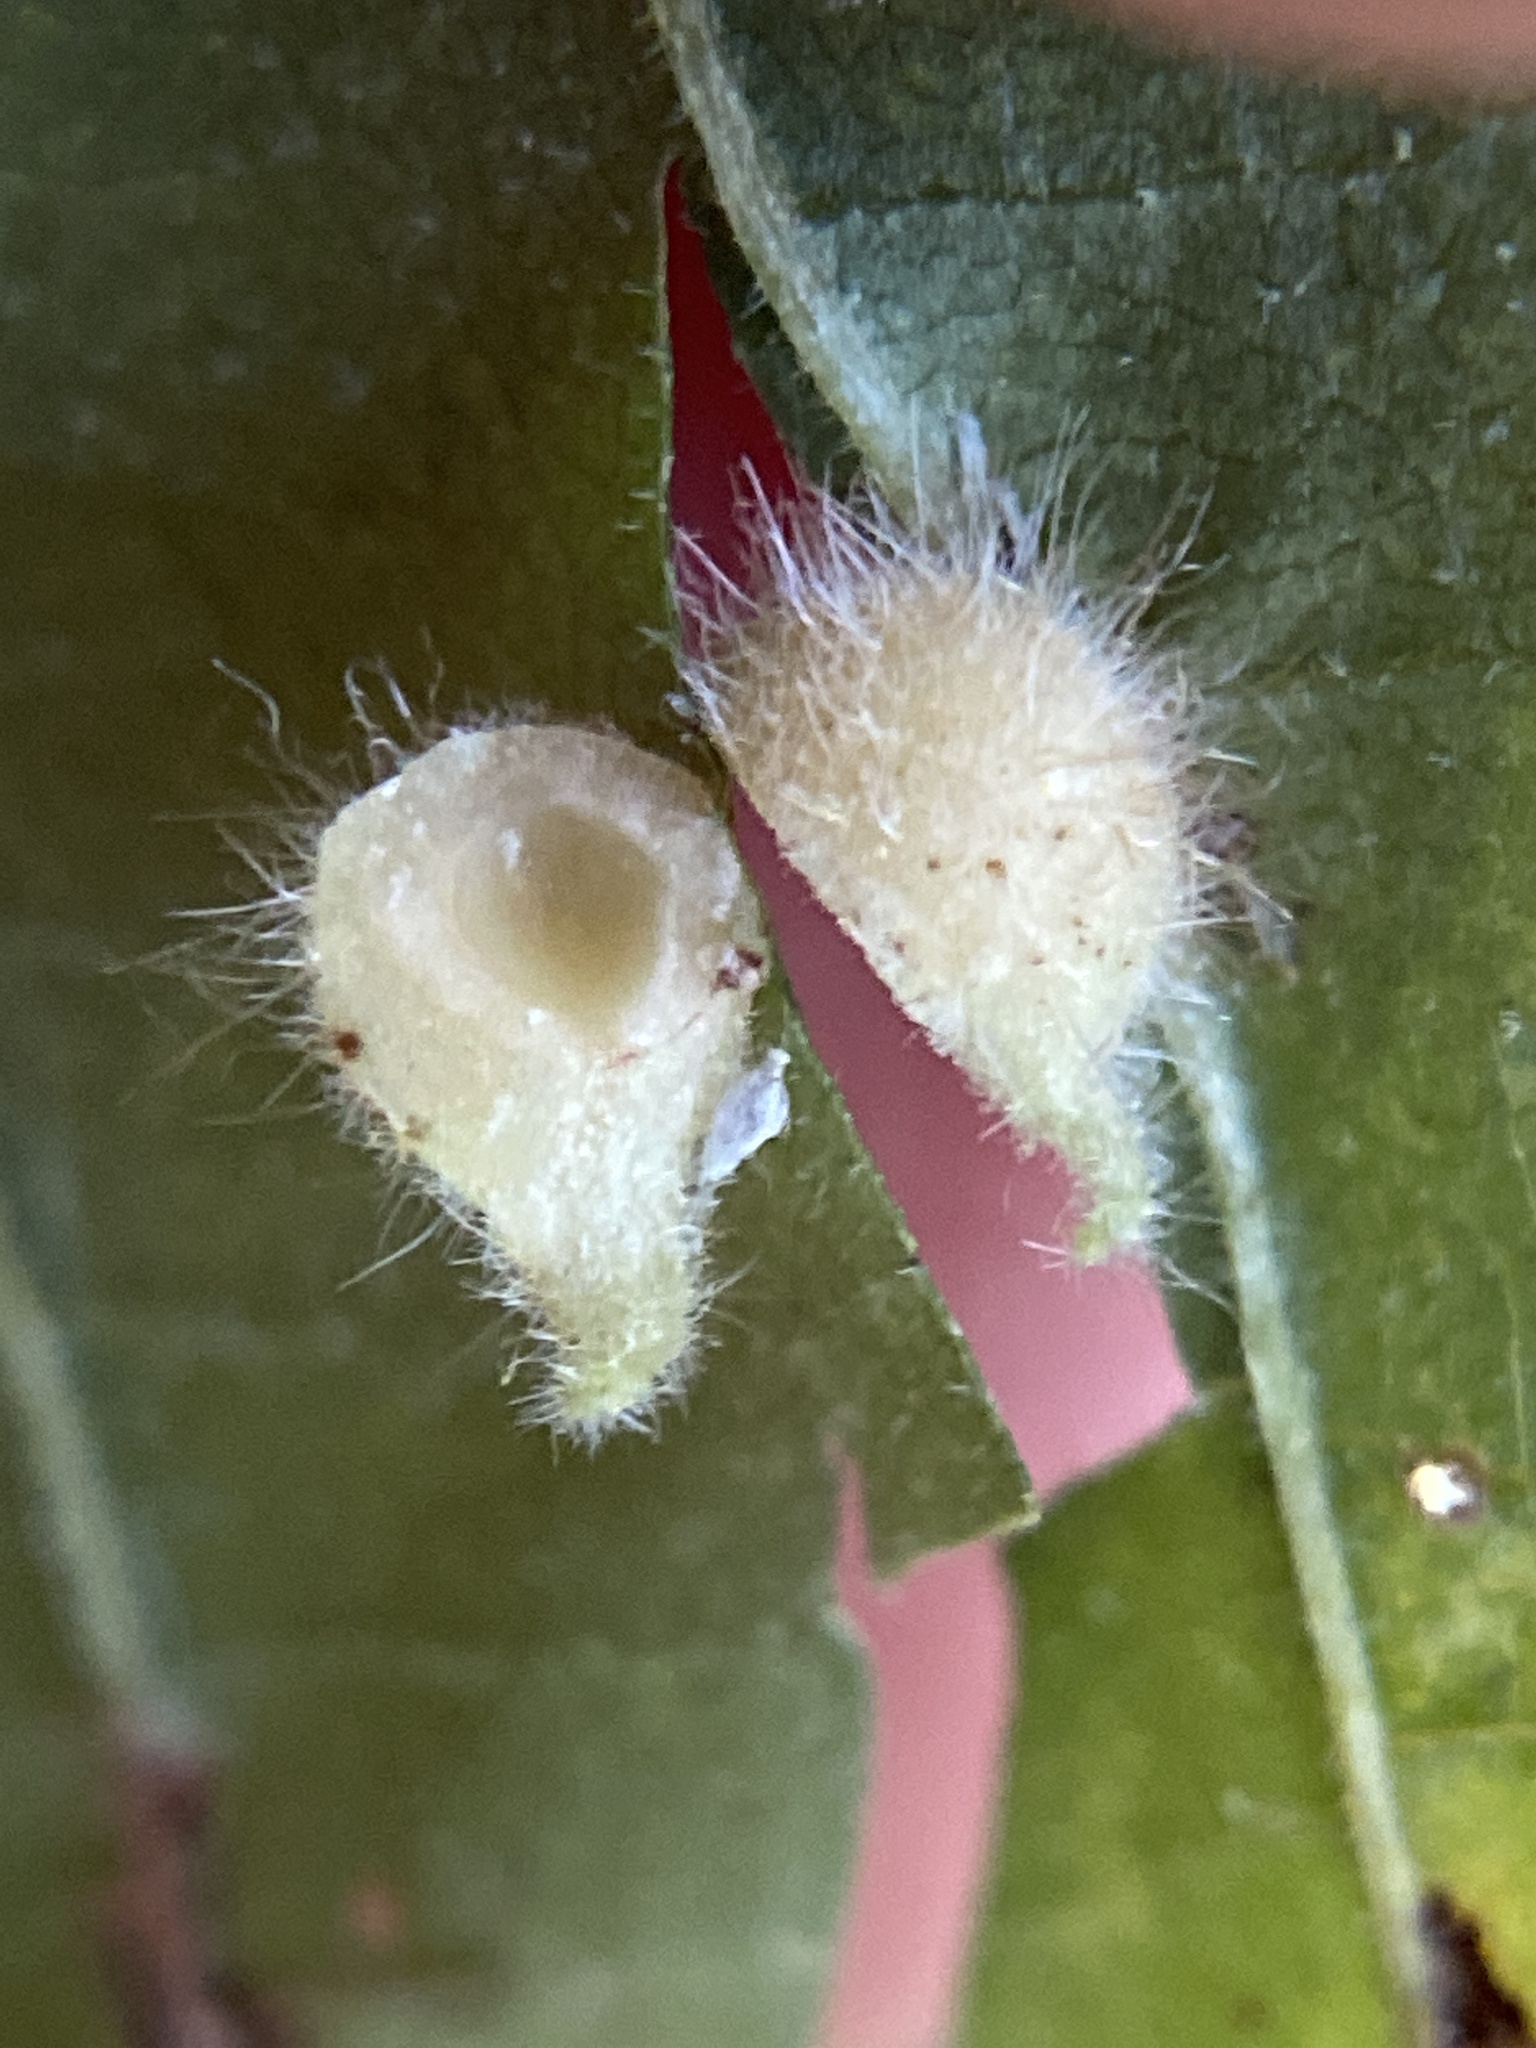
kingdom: Animalia
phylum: Arthropoda
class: Insecta
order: Diptera
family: Cecidomyiidae
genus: Caryomyia
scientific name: Caryomyia ansericollum
